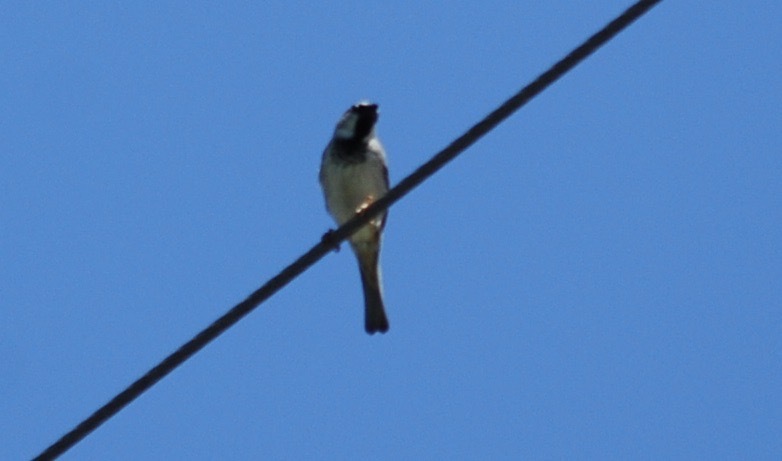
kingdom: Animalia
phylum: Chordata
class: Aves
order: Passeriformes
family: Passeridae
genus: Passer
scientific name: Passer domesticus
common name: House sparrow
